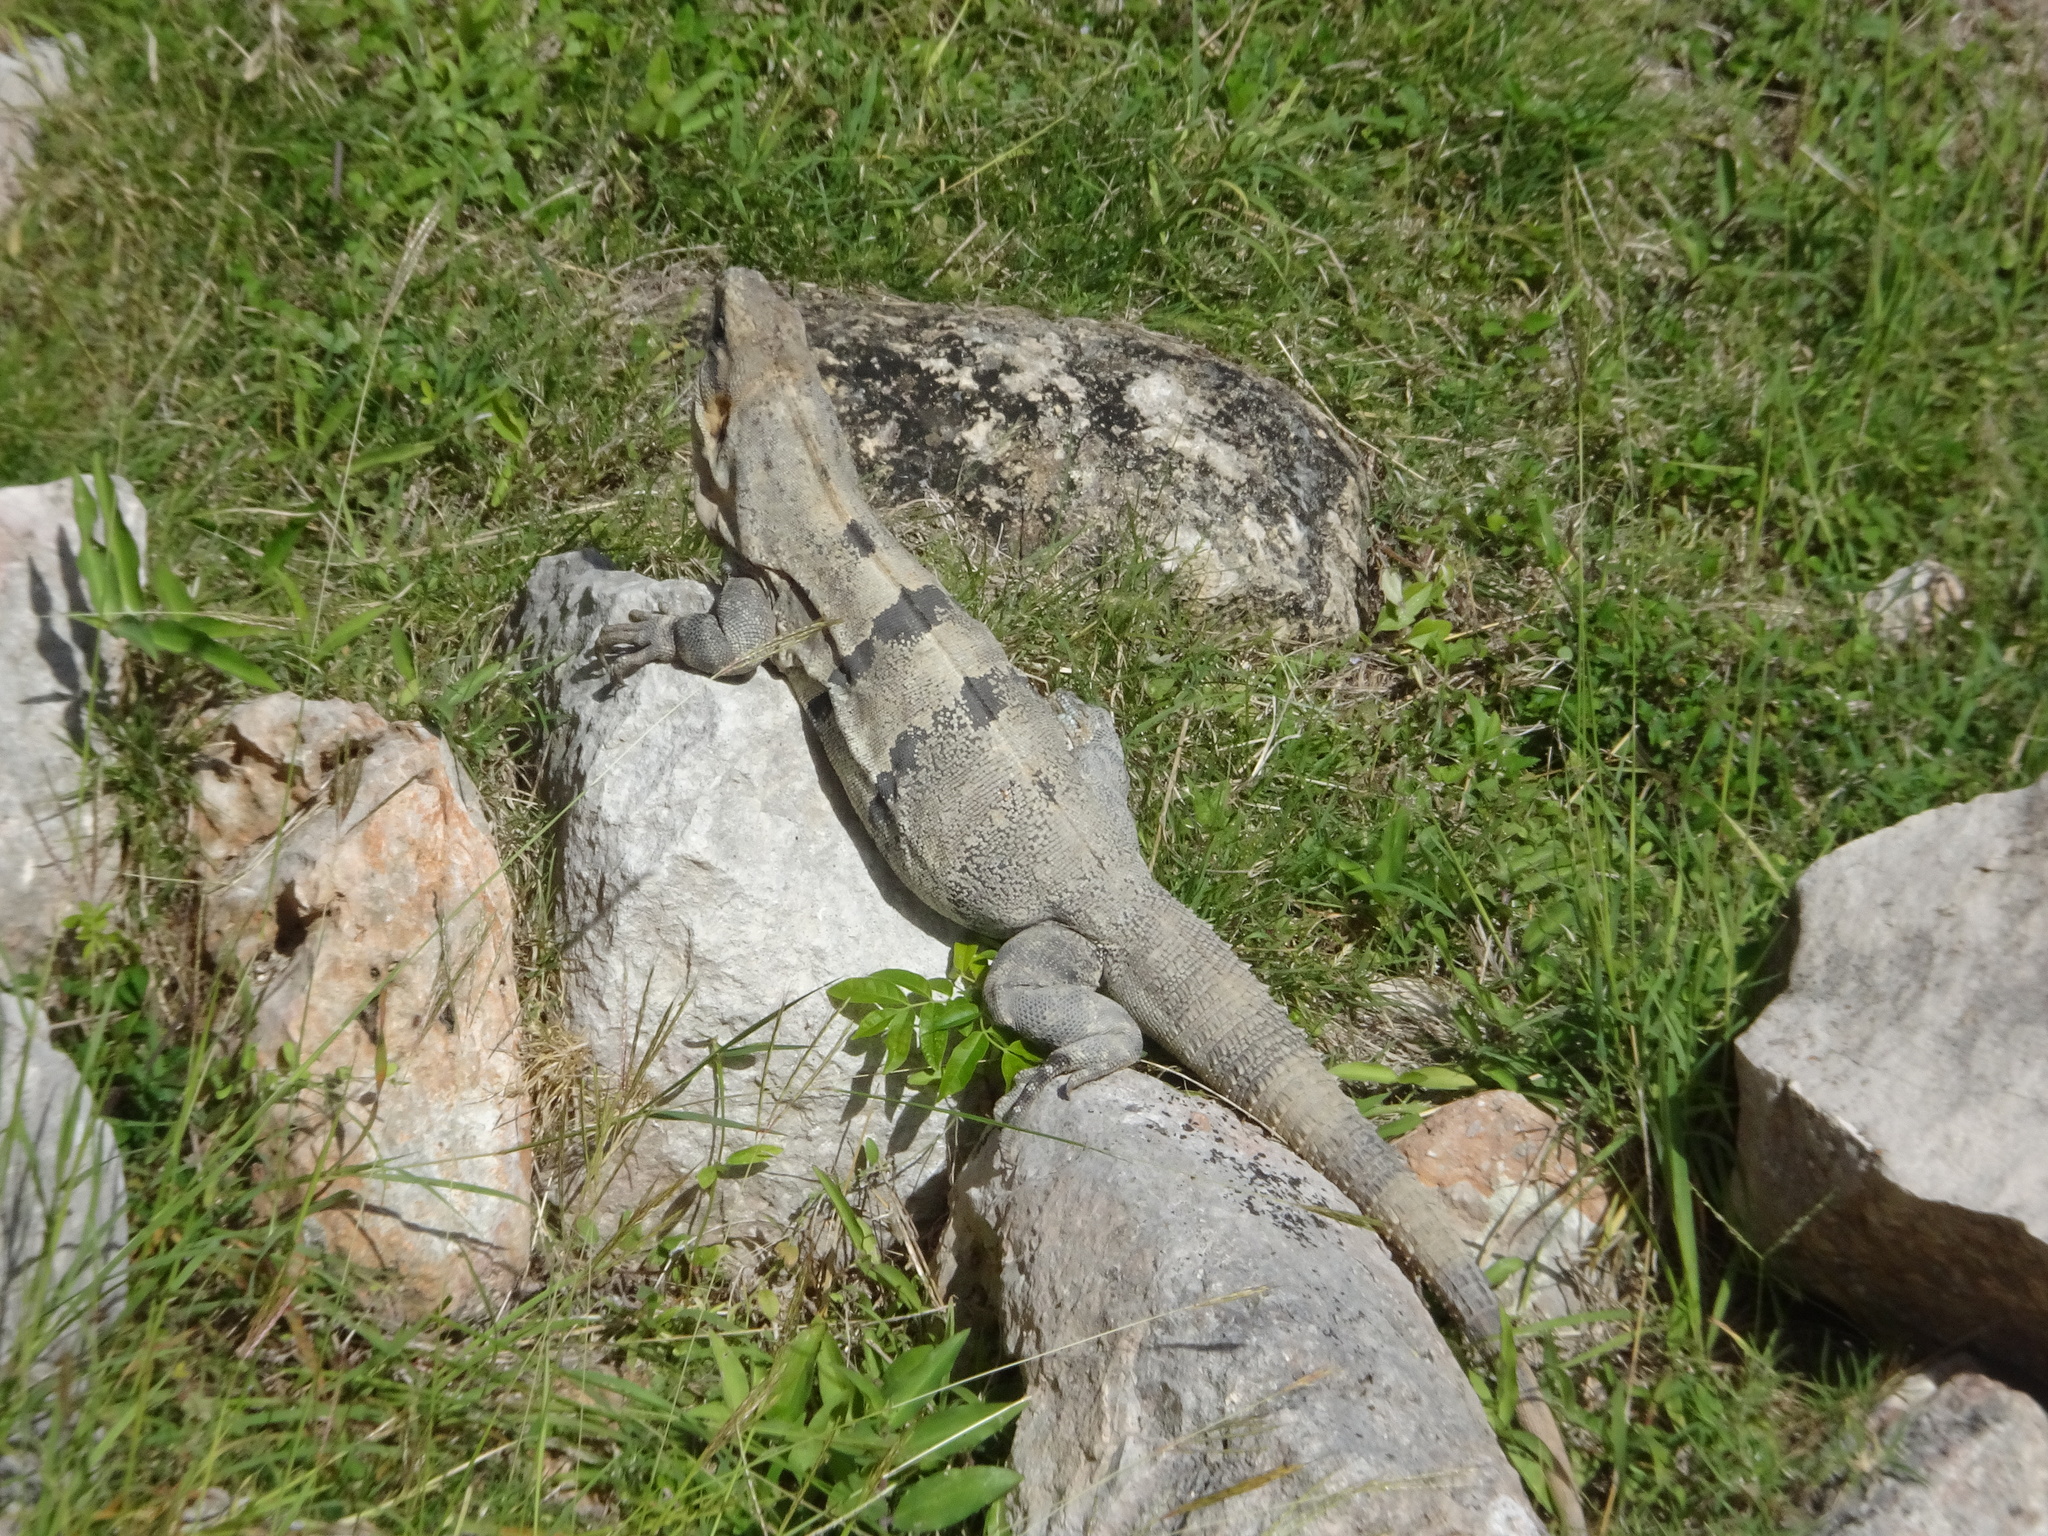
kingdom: Animalia
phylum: Chordata
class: Squamata
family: Iguanidae
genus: Ctenosaura
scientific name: Ctenosaura similis
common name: Black spiny-tailed iguana
